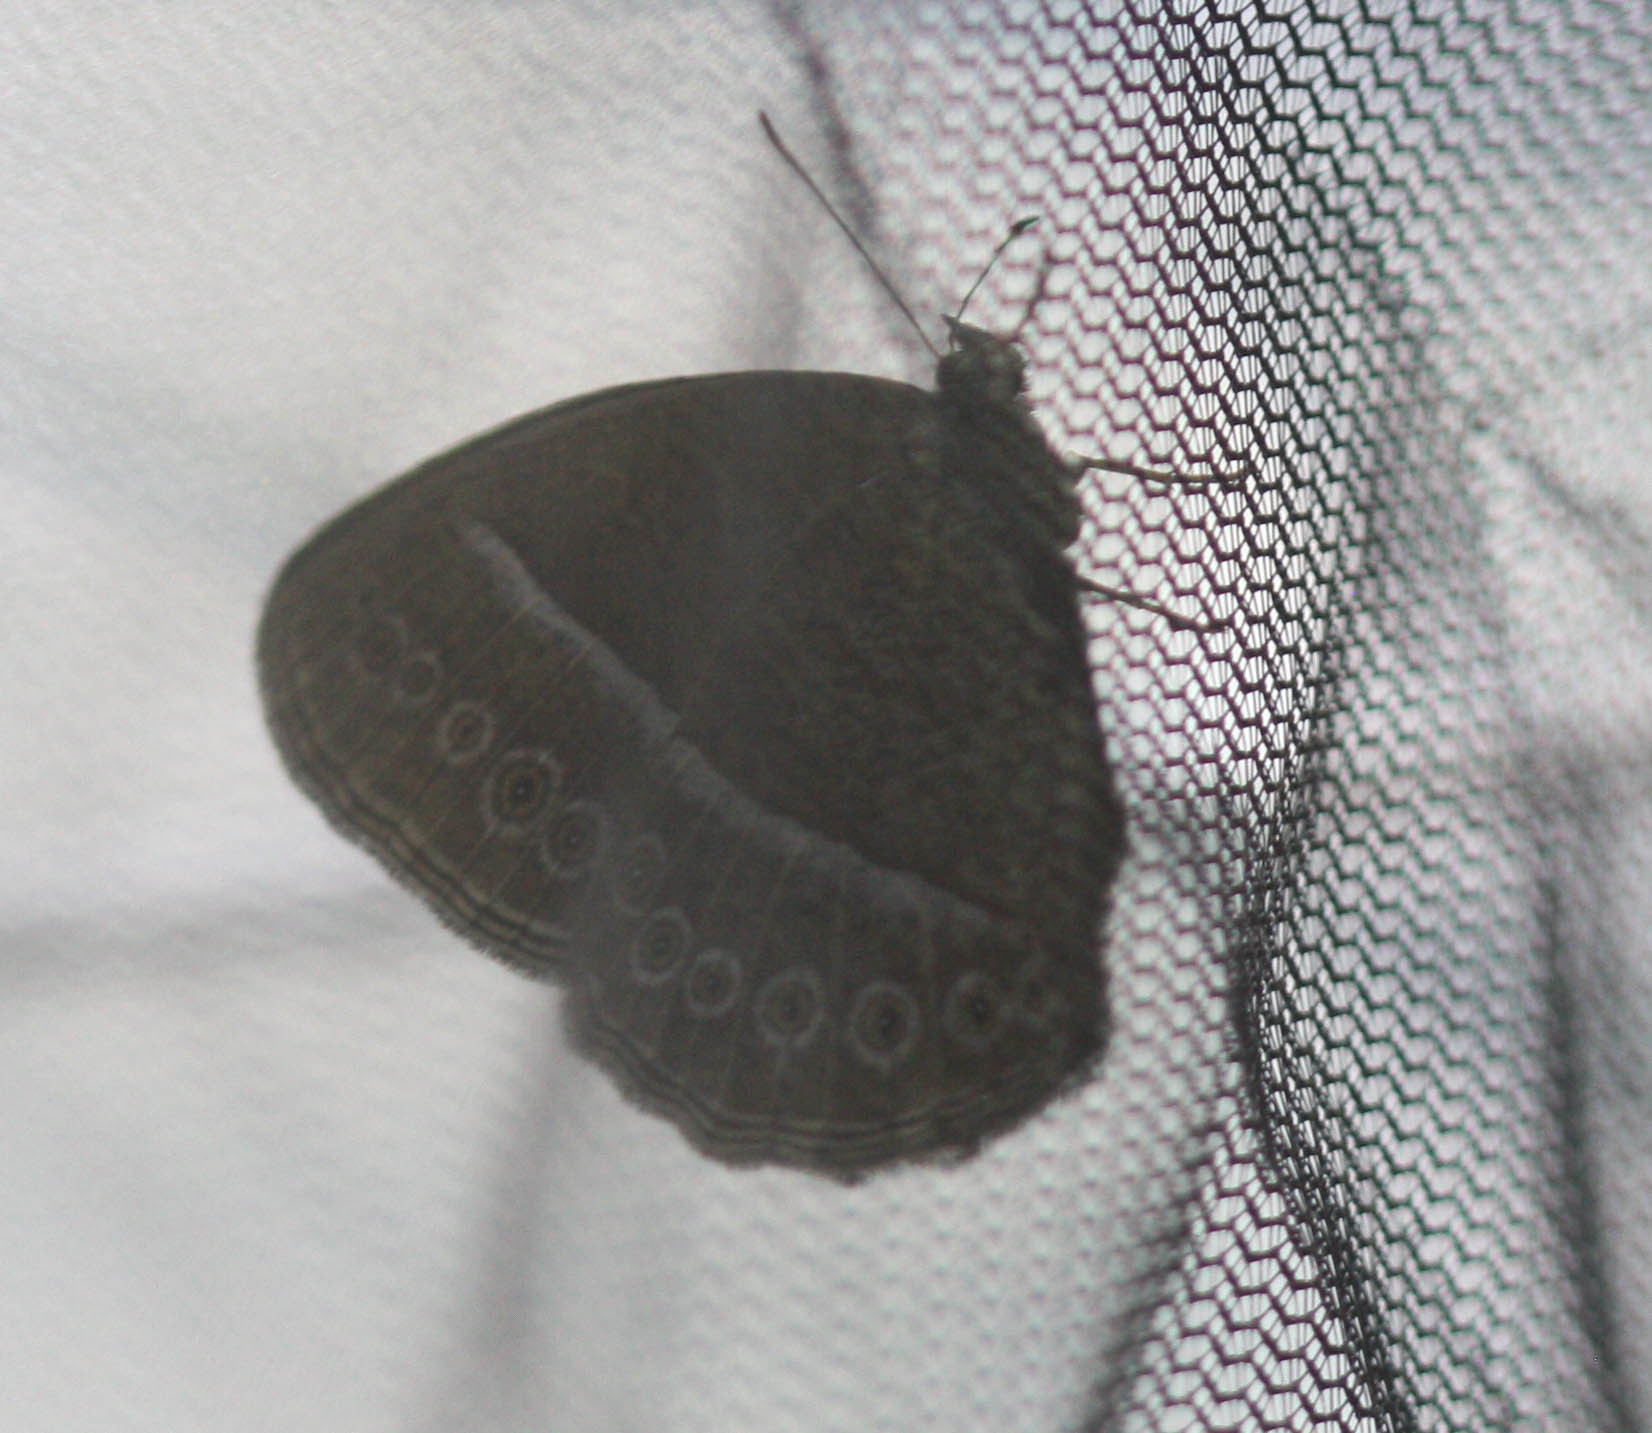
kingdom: Animalia
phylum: Arthropoda
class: Insecta
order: Lepidoptera
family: Nymphalidae
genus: Mycalesis
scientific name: Mycalesis Telinga janardana
